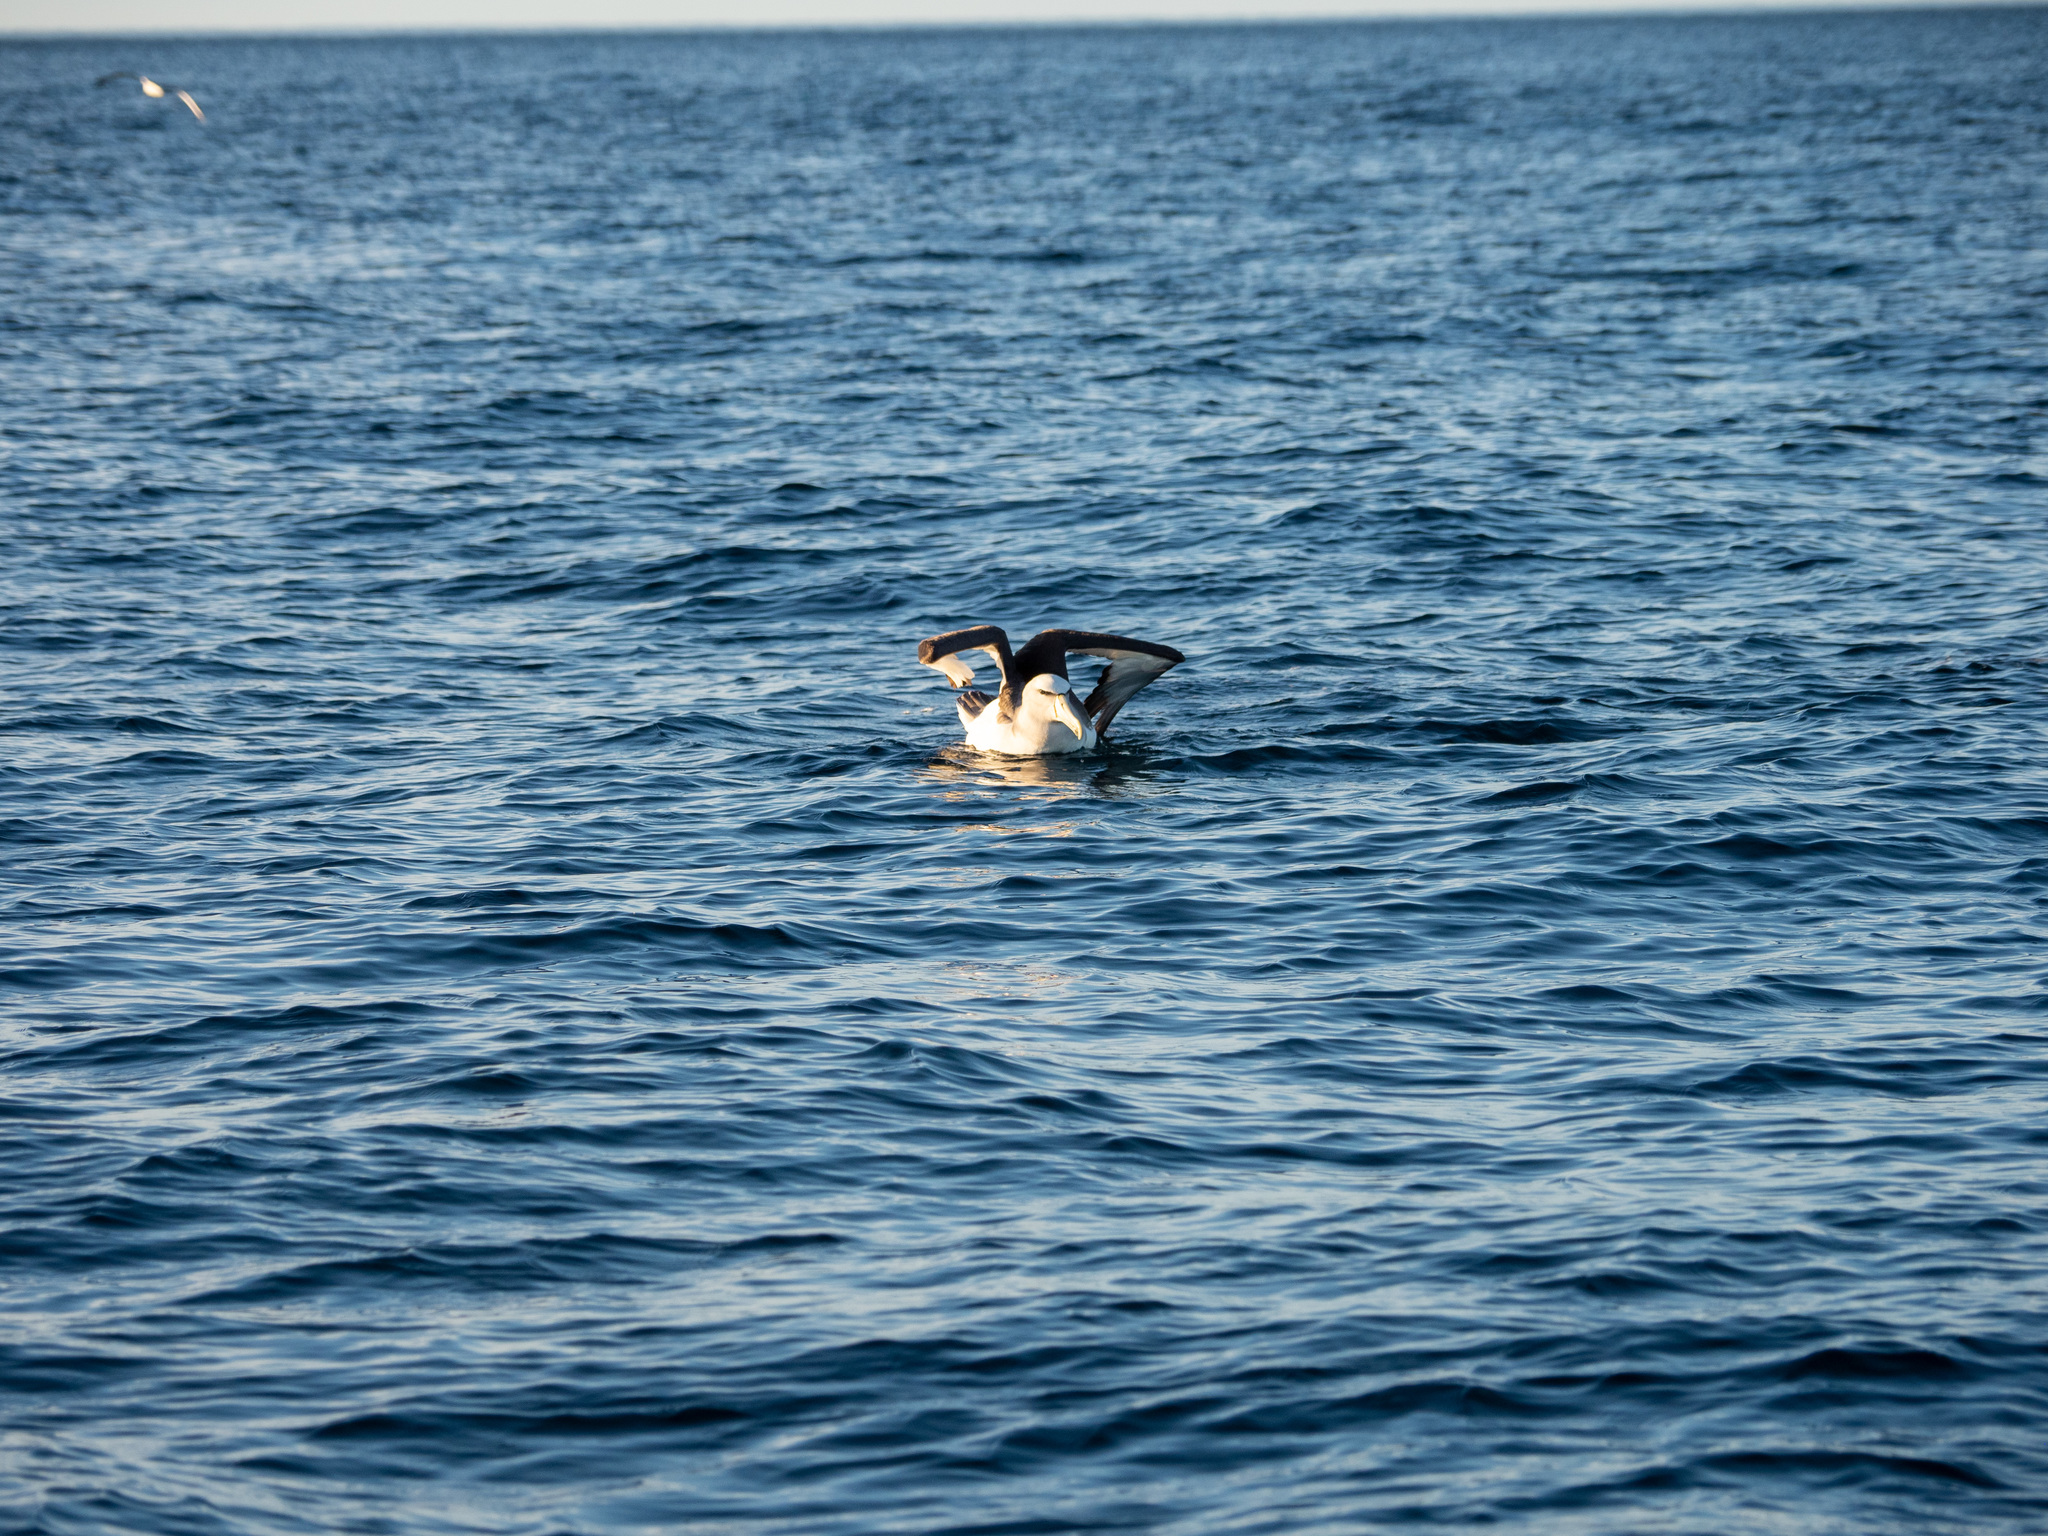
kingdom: Animalia
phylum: Chordata
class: Aves
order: Procellariiformes
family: Diomedeidae
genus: Thalassarche
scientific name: Thalassarche salvini
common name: Salvin's albatross
